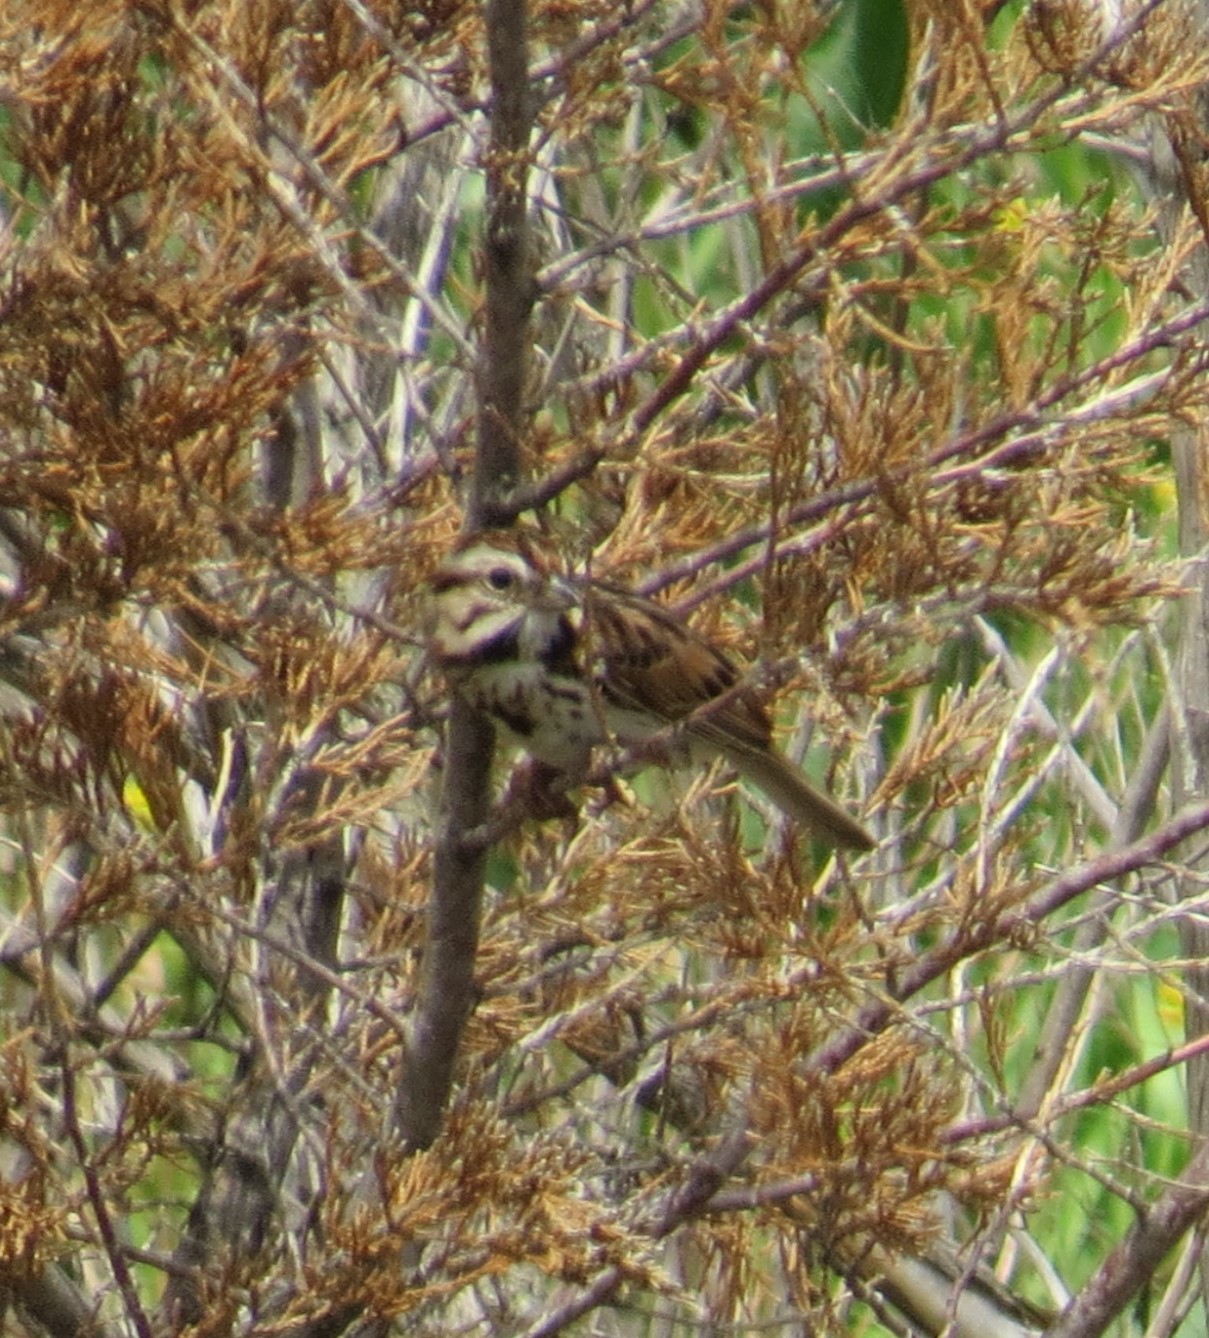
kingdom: Animalia
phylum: Chordata
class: Aves
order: Passeriformes
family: Passerellidae
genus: Melospiza
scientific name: Melospiza melodia
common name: Song sparrow
